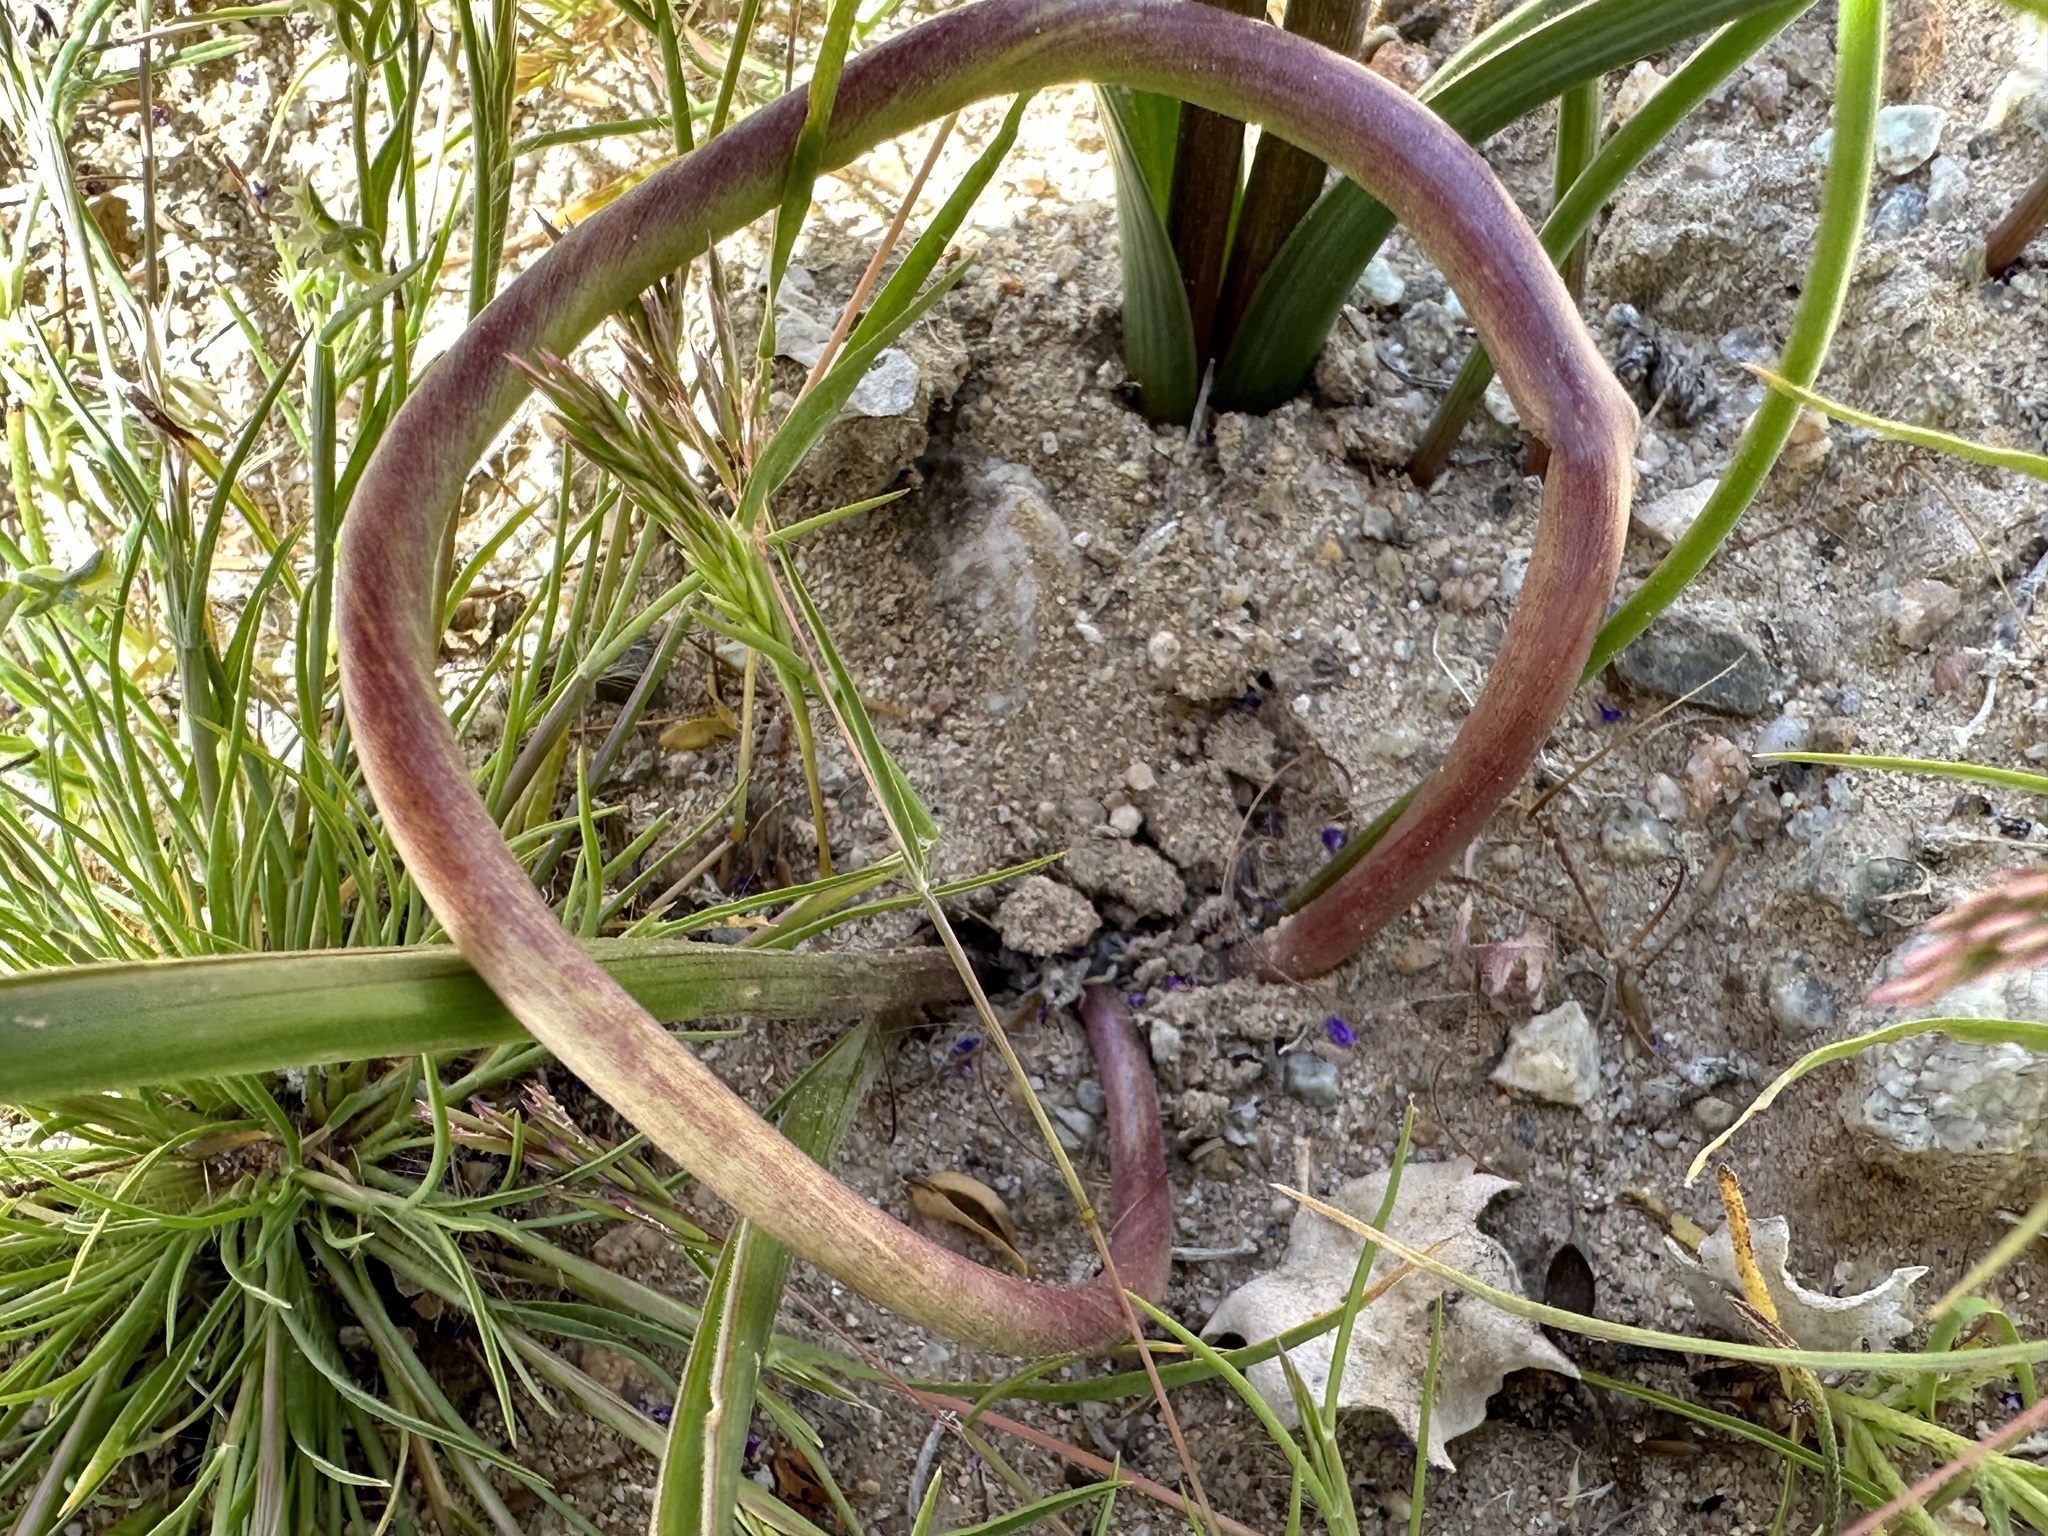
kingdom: Plantae
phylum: Tracheophyta
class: Liliopsida
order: Asparagales
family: Asparagaceae
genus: Dipterostemon
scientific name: Dipterostemon capitatus
